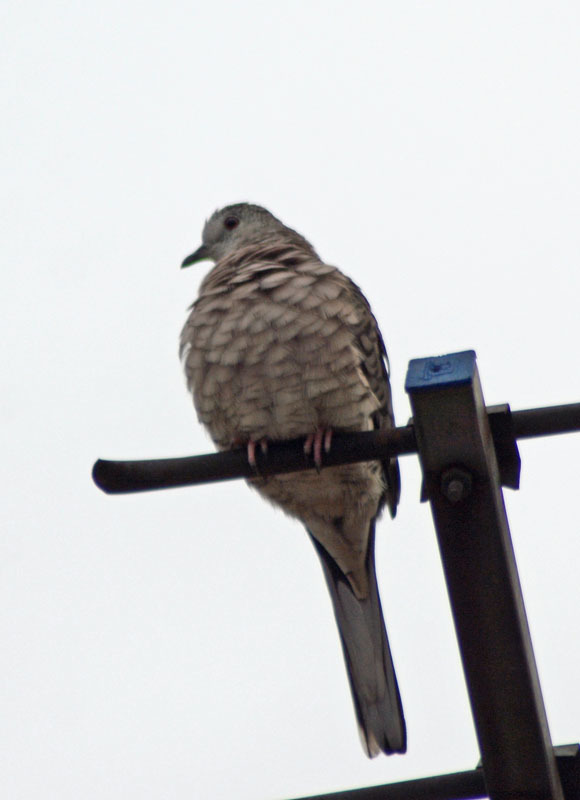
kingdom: Animalia
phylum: Chordata
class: Aves
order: Columbiformes
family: Columbidae
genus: Columbina
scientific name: Columbina inca
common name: Inca dove
